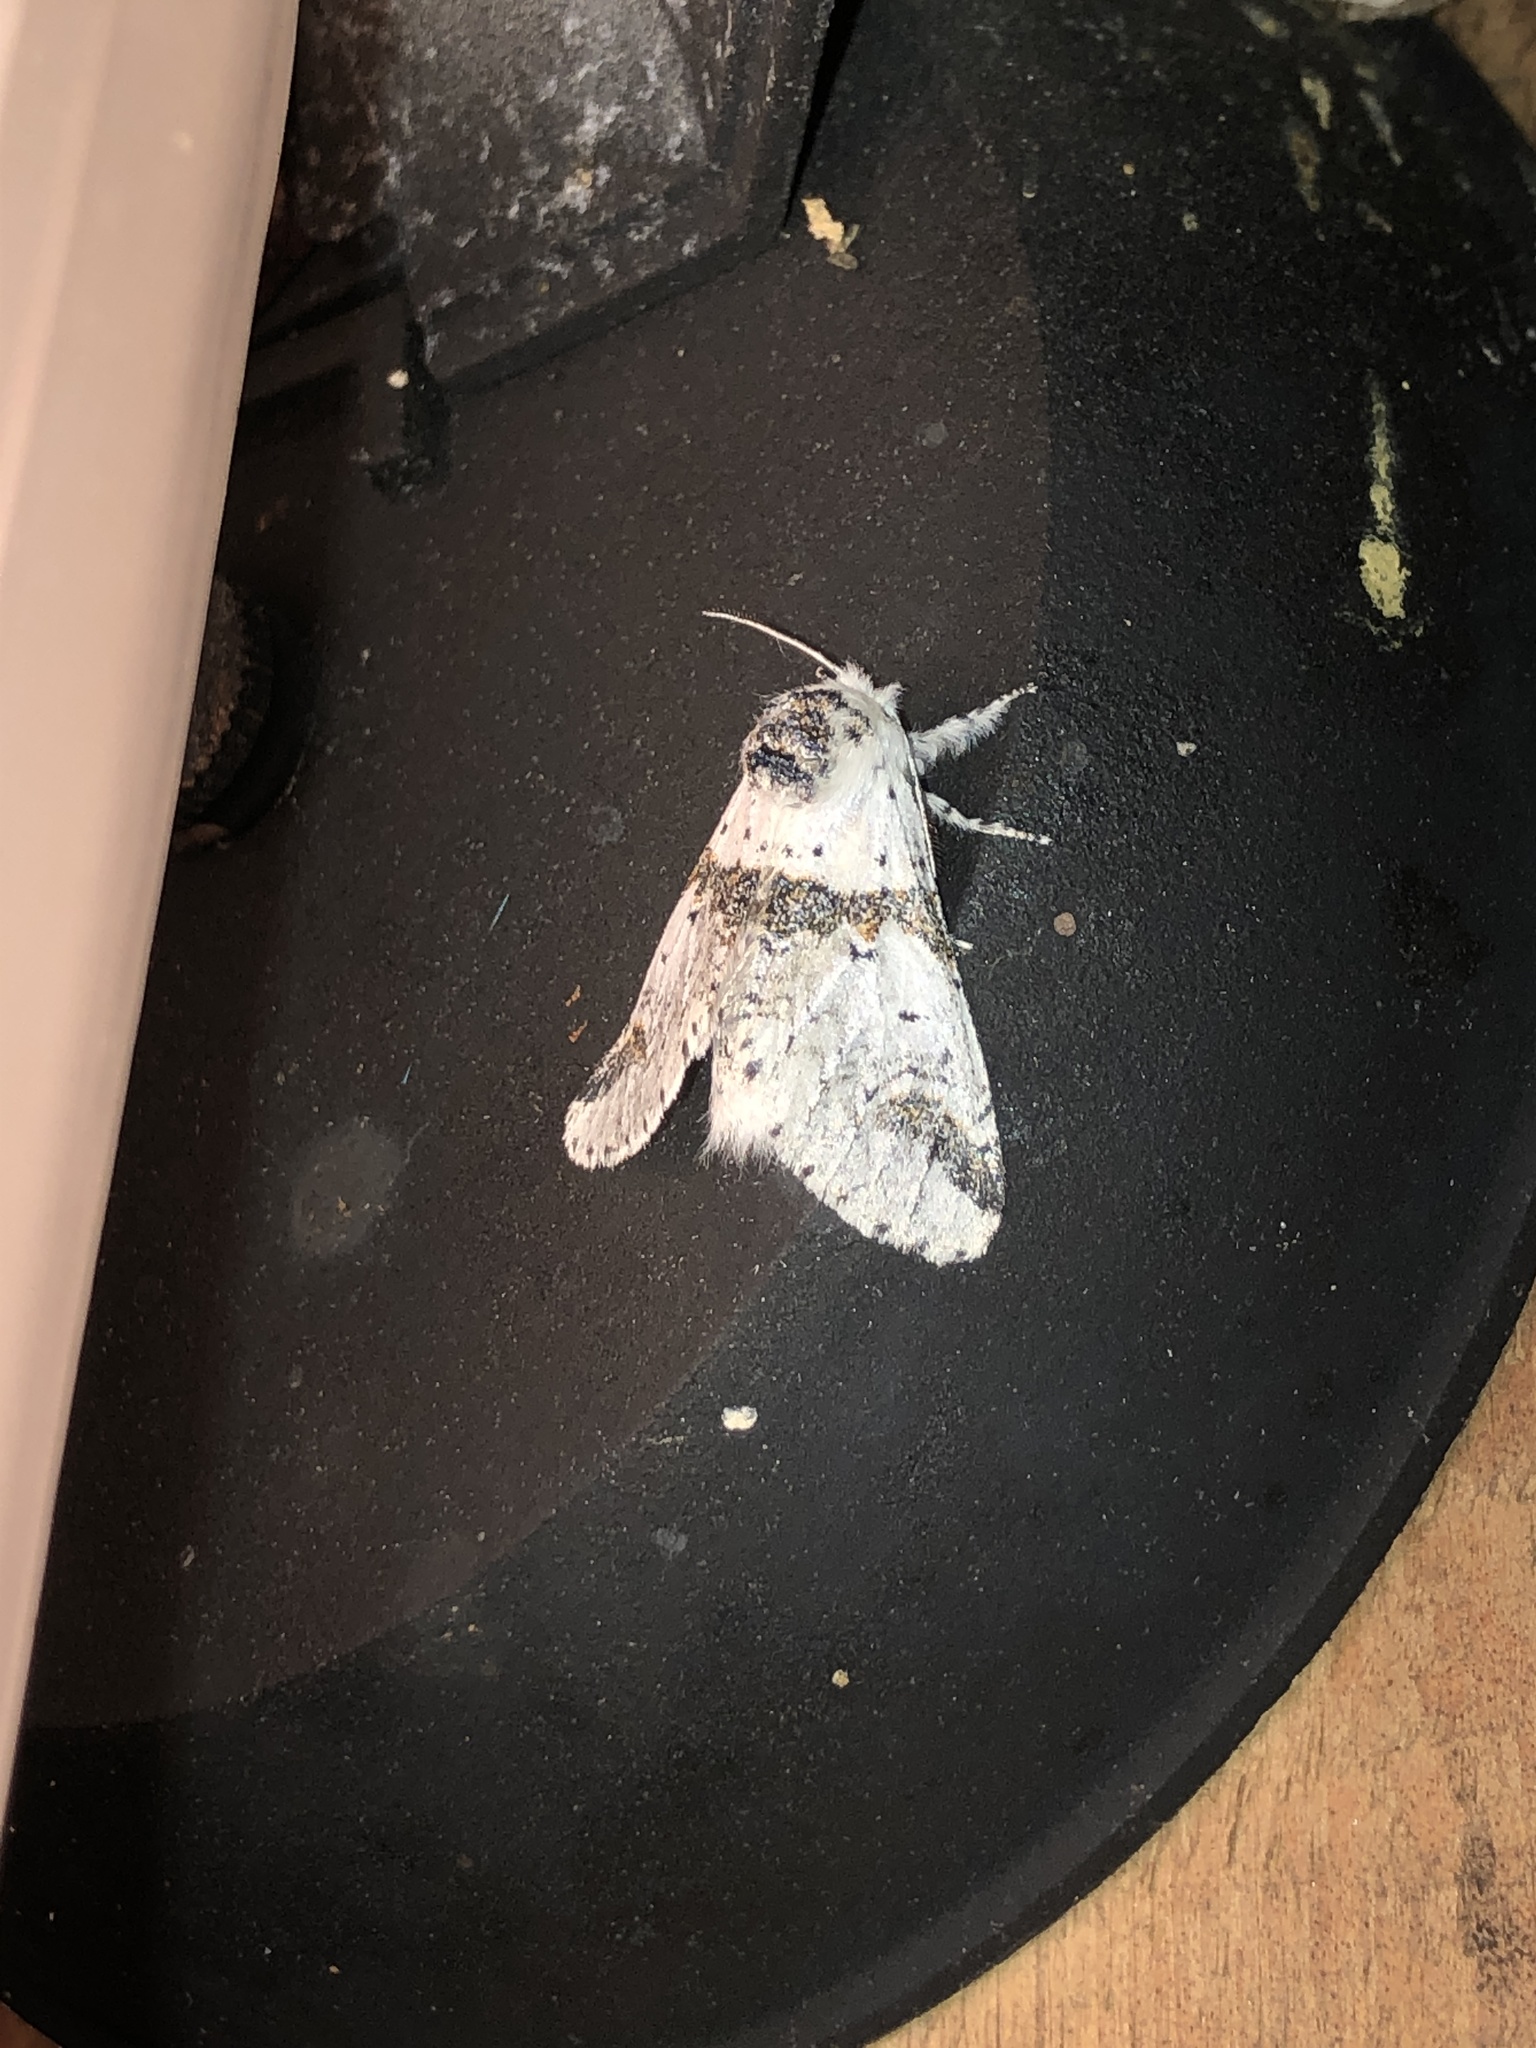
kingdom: Animalia
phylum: Arthropoda
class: Insecta
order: Lepidoptera
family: Notodontidae
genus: Furcula
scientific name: Furcula scolopendrina
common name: Zigzag furcula moth
